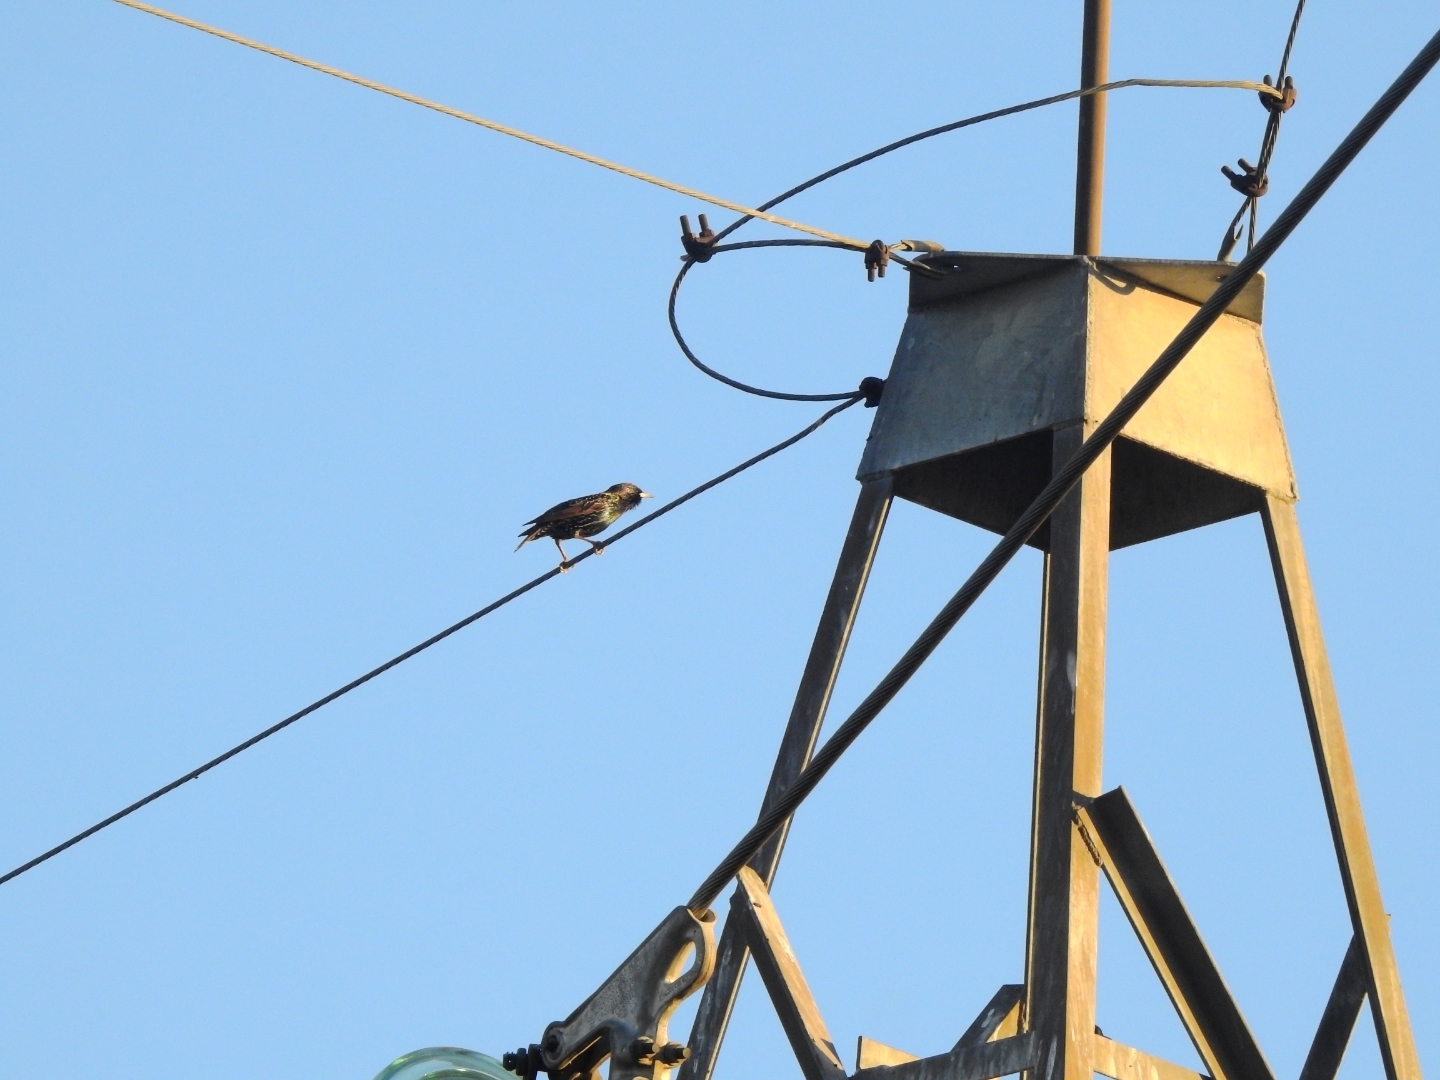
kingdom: Animalia
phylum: Chordata
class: Aves
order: Passeriformes
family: Sturnidae
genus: Sturnus
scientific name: Sturnus vulgaris
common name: Common starling
